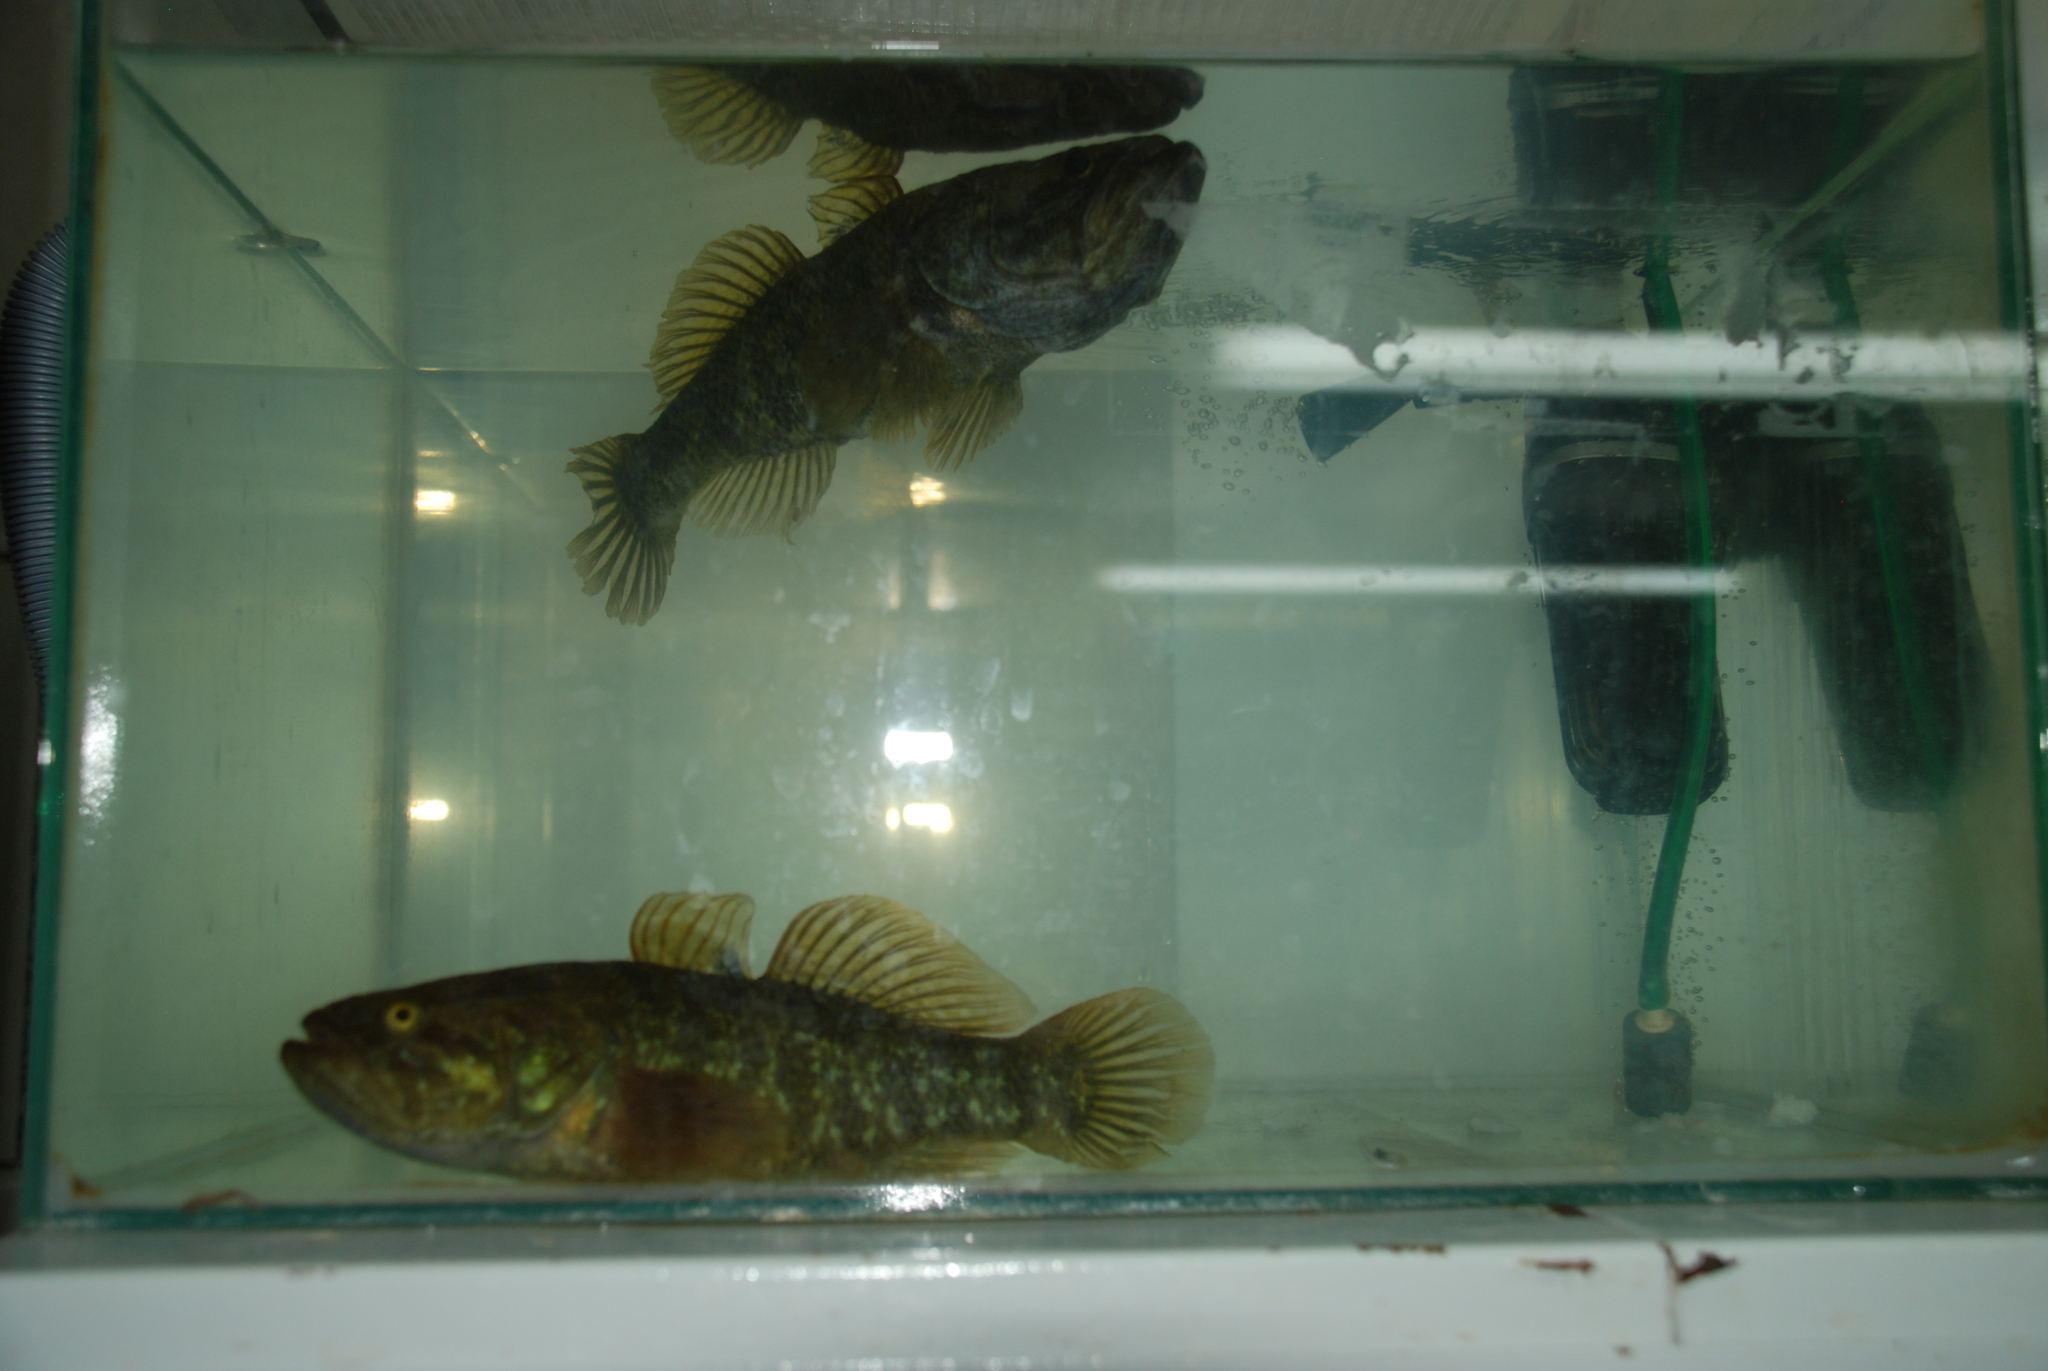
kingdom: Animalia
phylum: Chordata
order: Perciformes
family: Odontobutidae
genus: Perccottus
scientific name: Perccottus glenii
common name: Amur sleeper
